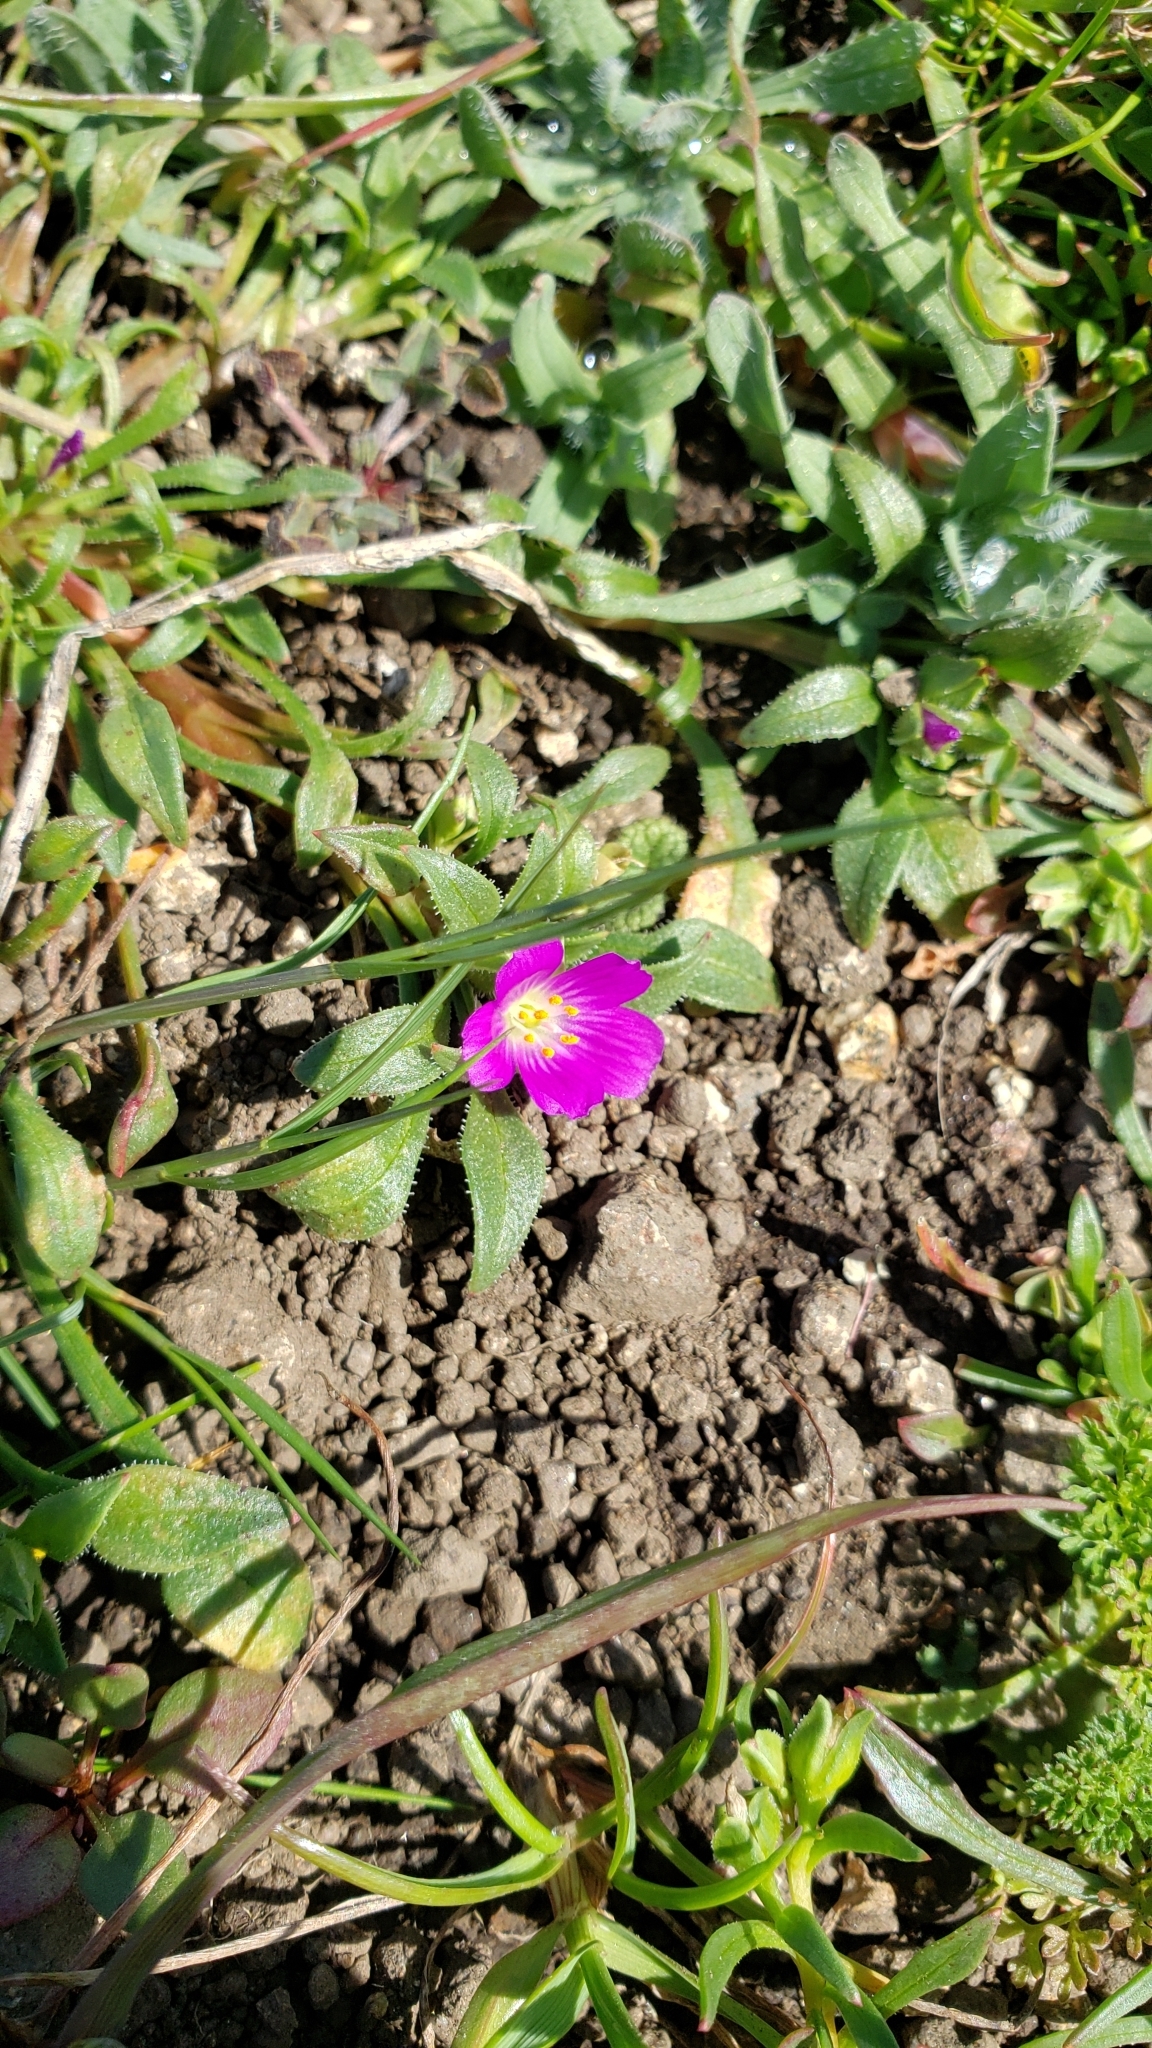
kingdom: Plantae
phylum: Tracheophyta
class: Magnoliopsida
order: Caryophyllales
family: Montiaceae
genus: Calandrinia
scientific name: Calandrinia menziesii
